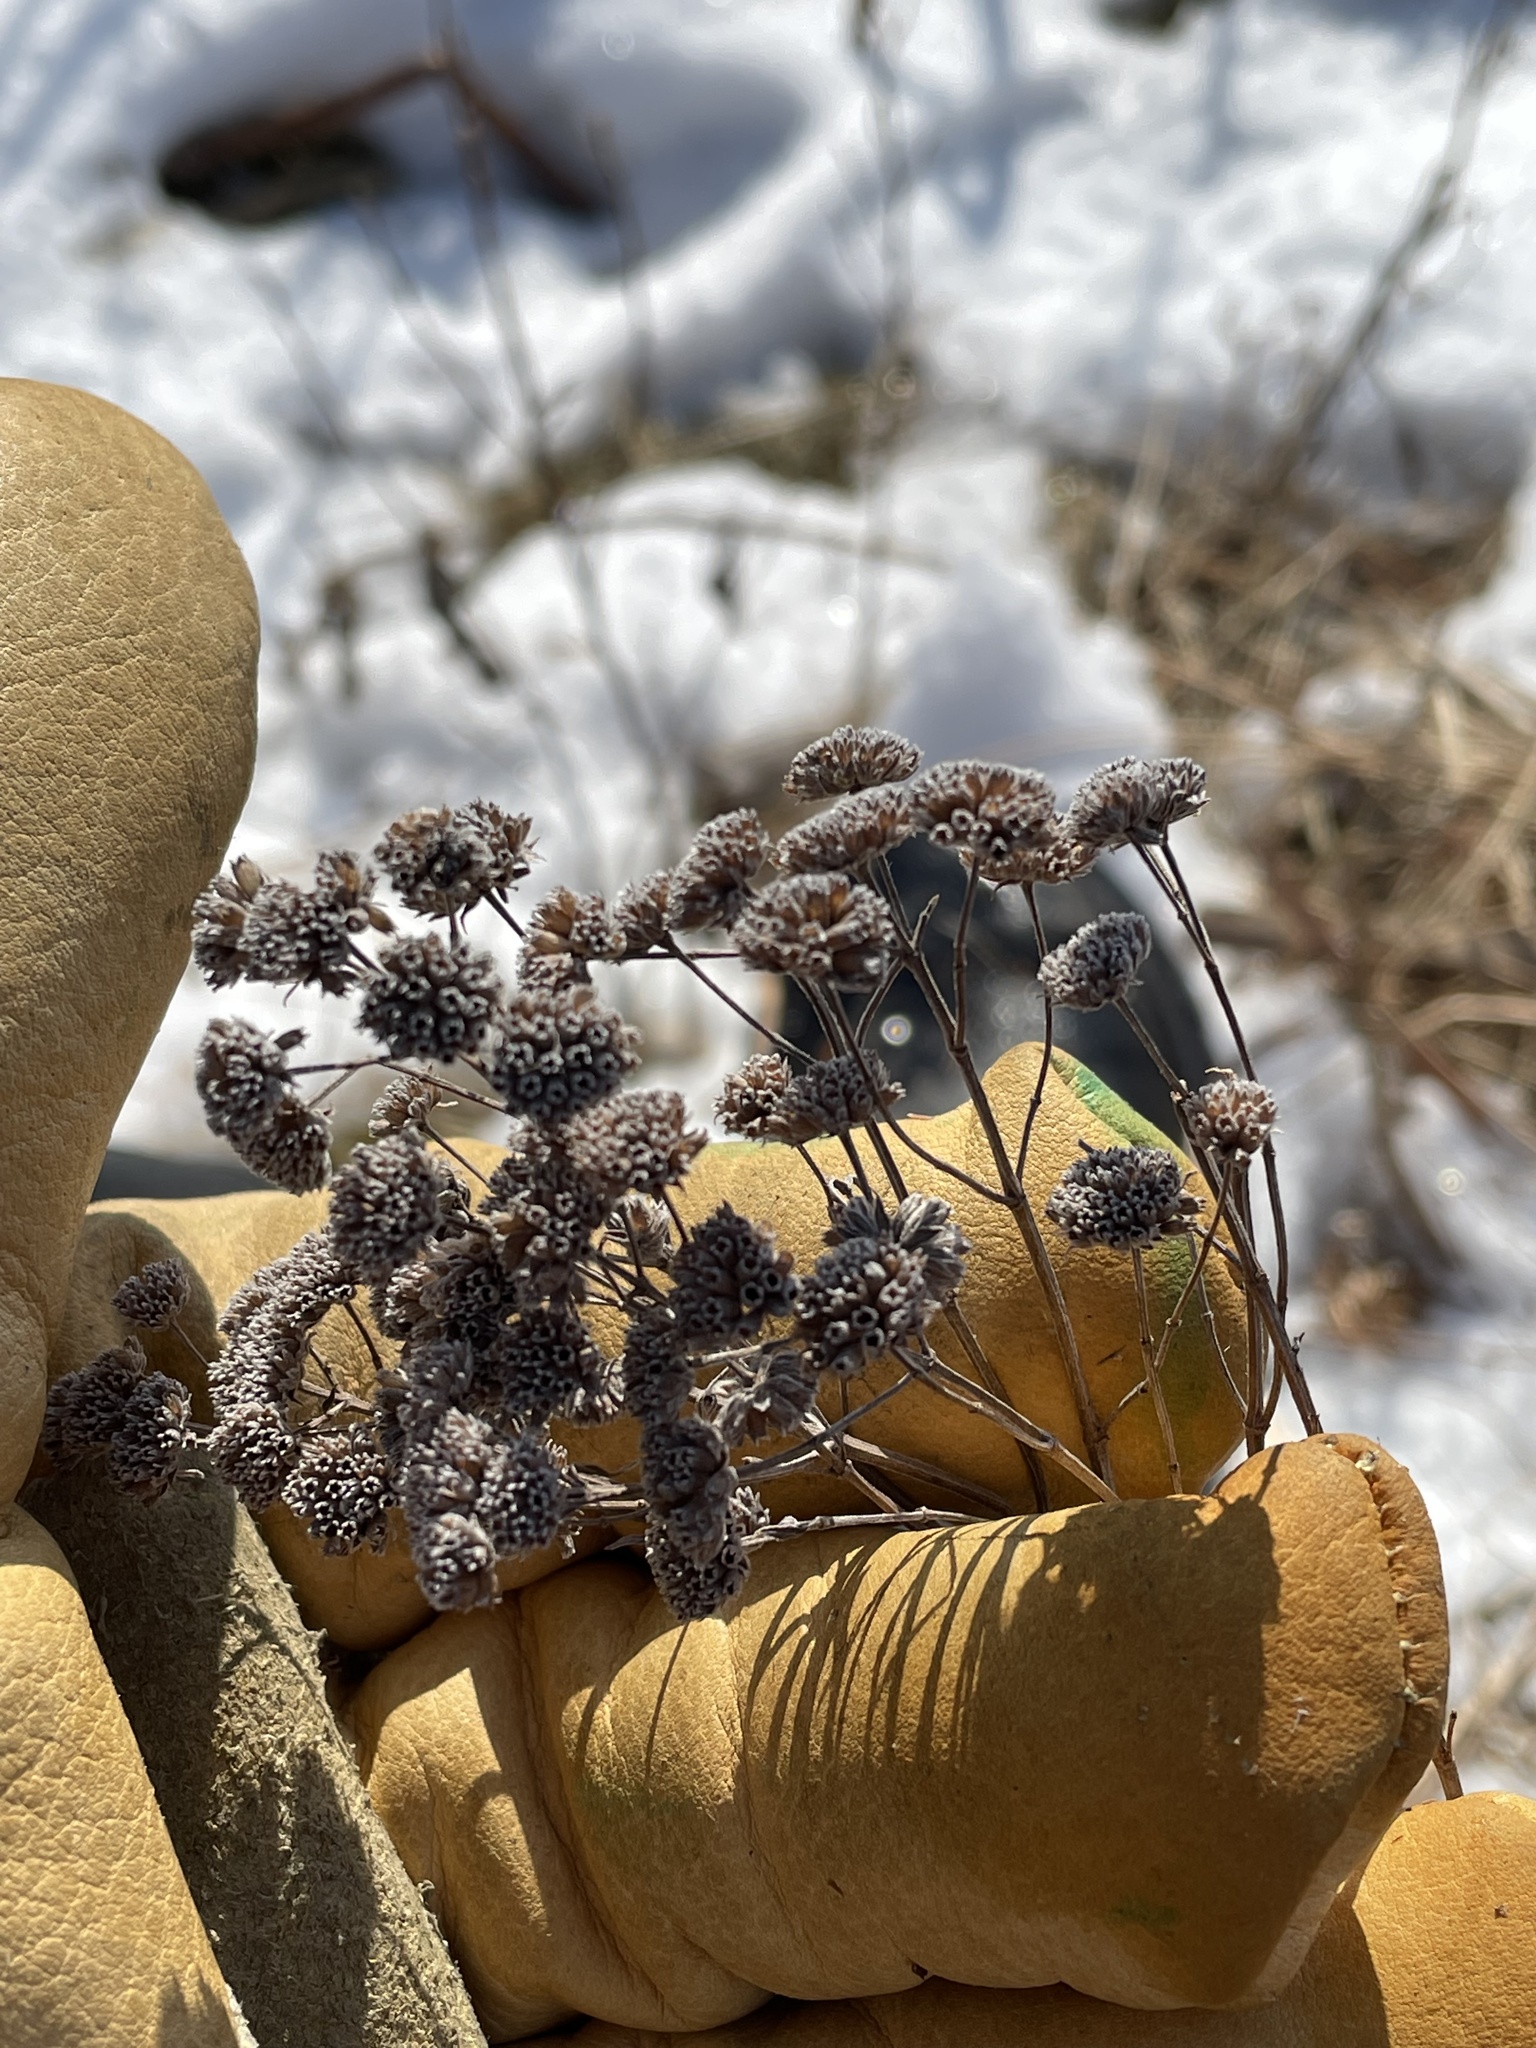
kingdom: Plantae
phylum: Tracheophyta
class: Magnoliopsida
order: Lamiales
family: Lamiaceae
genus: Pycnanthemum
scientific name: Pycnanthemum virginianum
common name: Virginia mountain-mint
